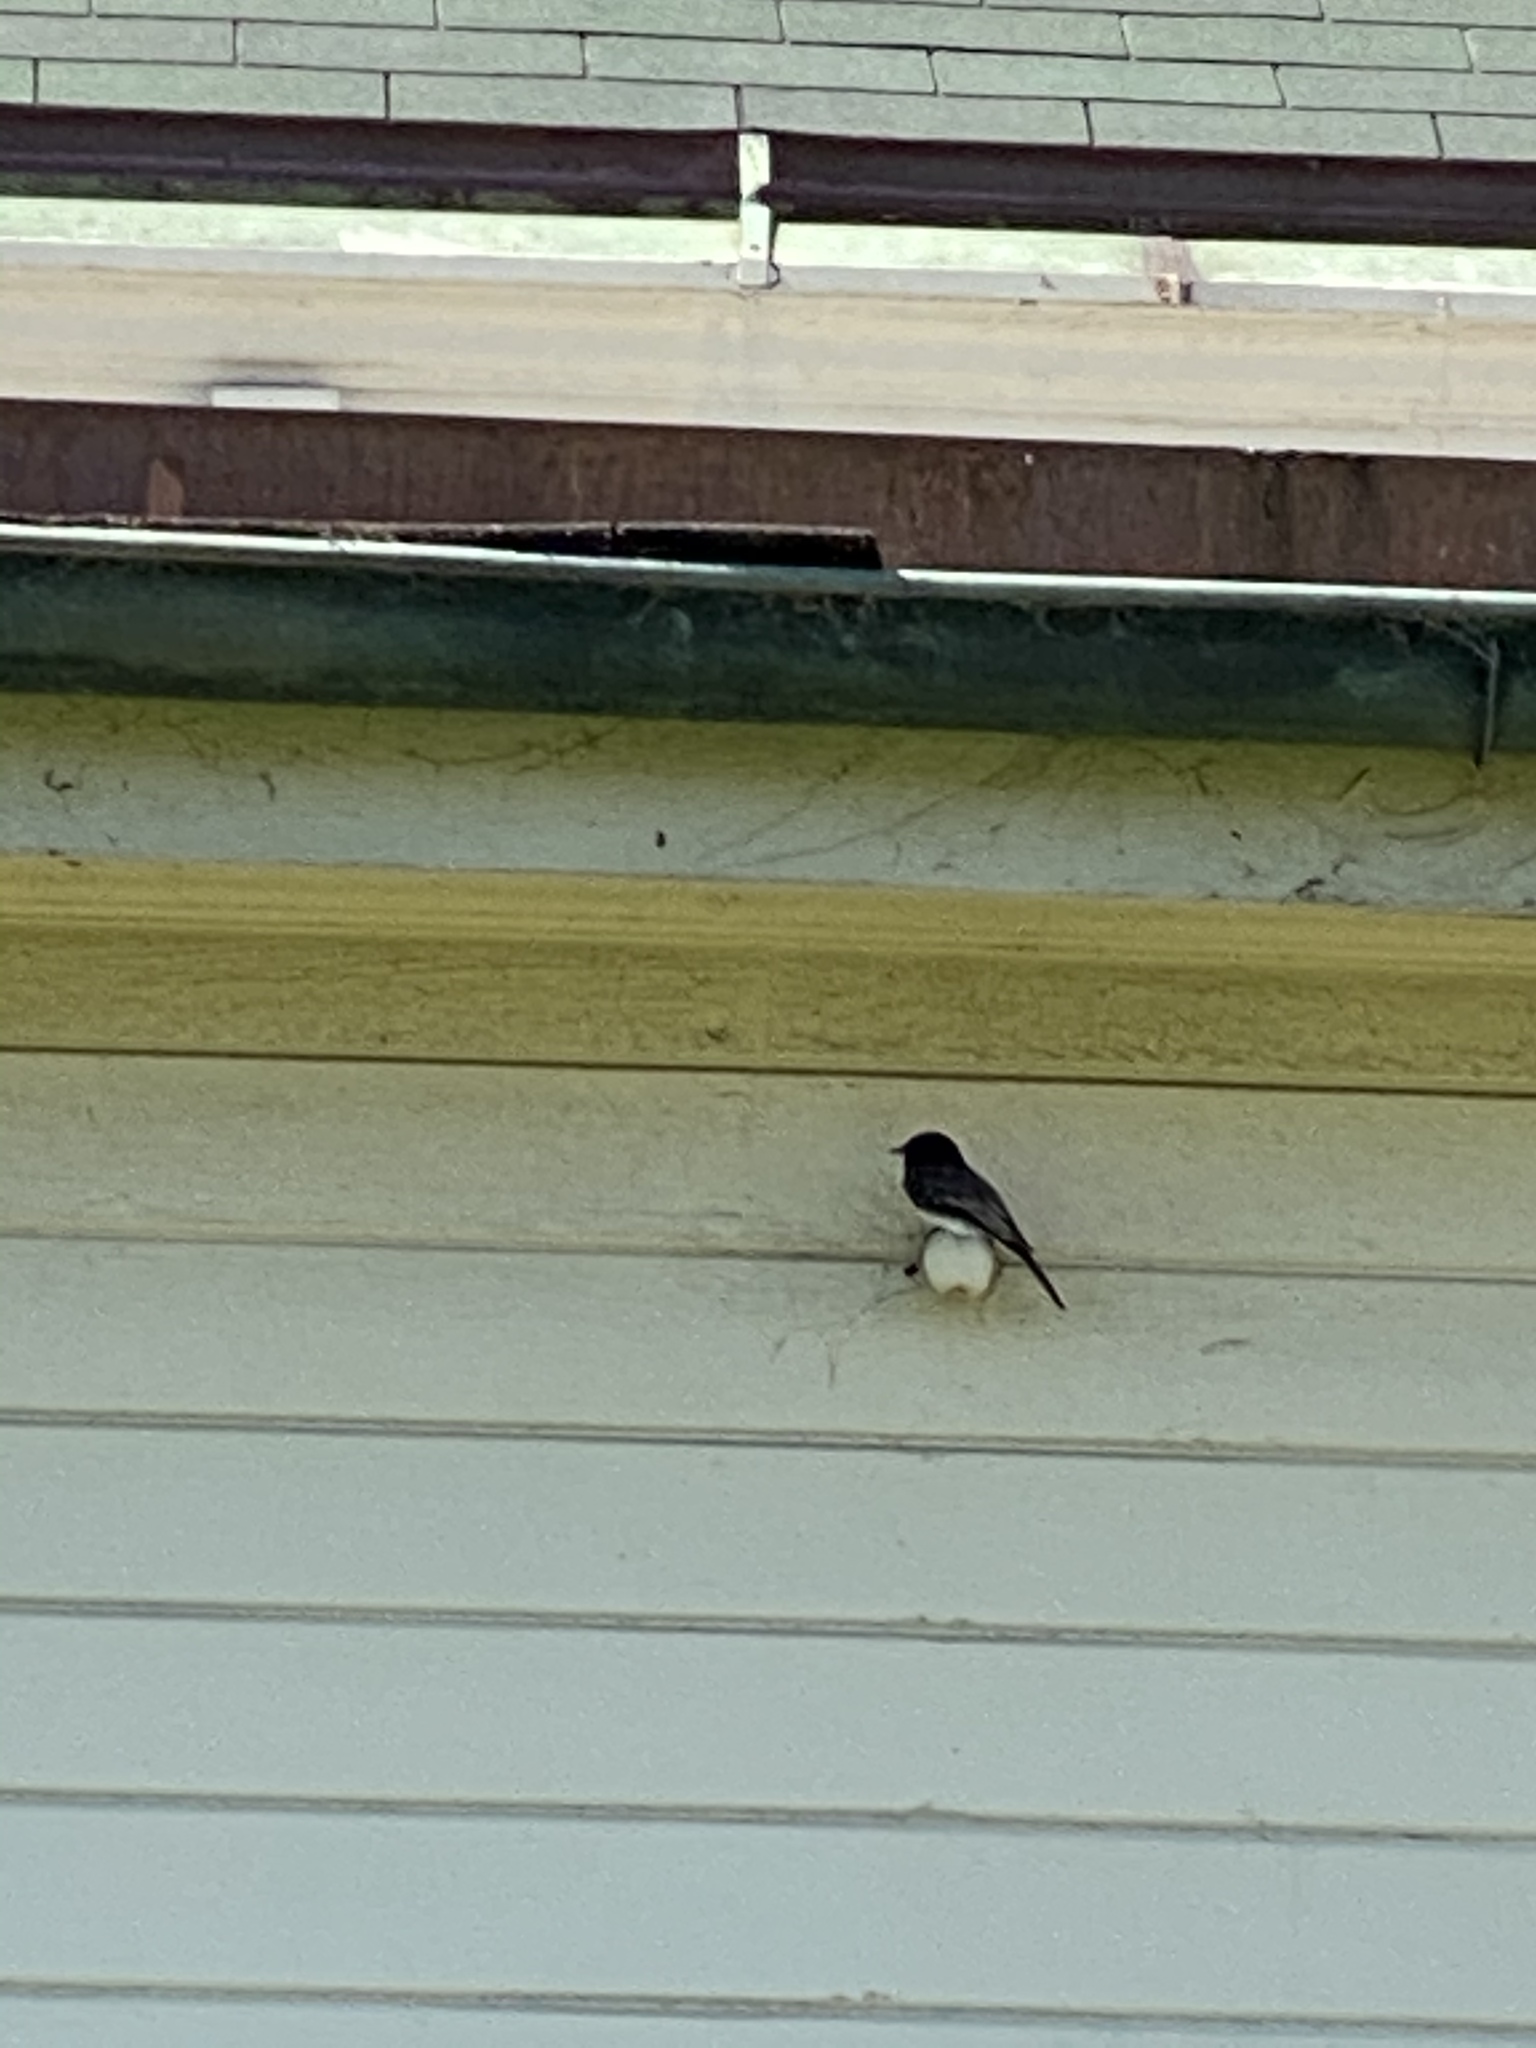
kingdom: Animalia
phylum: Chordata
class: Aves
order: Passeriformes
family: Tyrannidae
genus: Sayornis
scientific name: Sayornis nigricans
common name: Black phoebe
